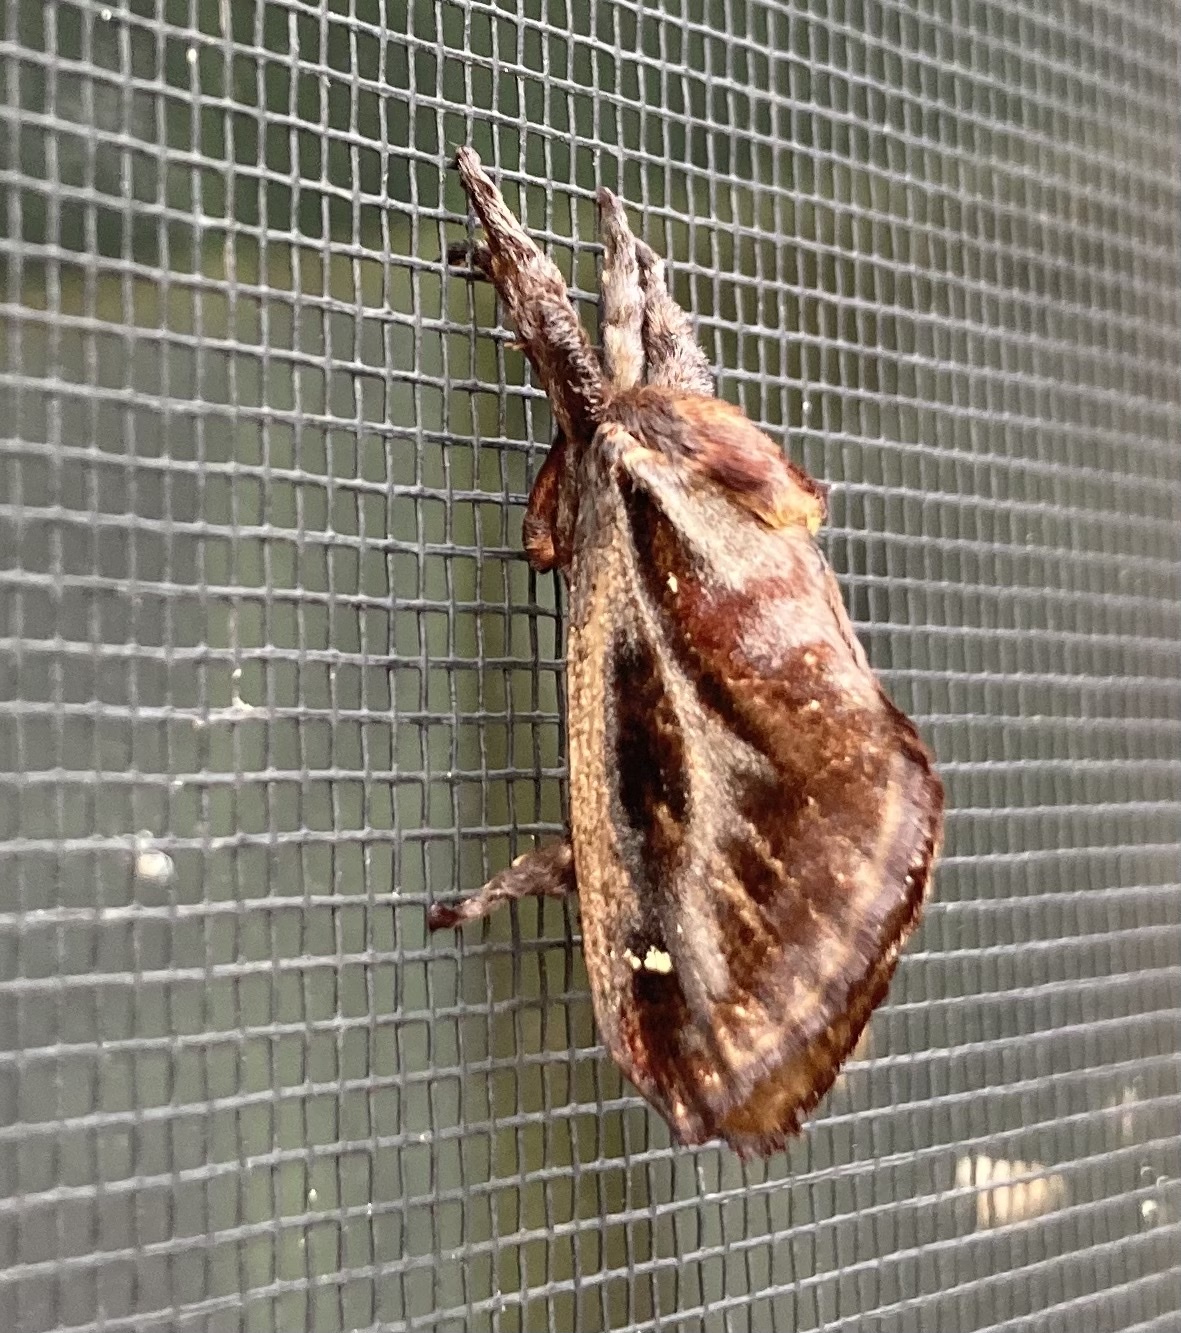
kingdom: Animalia
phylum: Arthropoda
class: Insecta
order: Lepidoptera
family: Limacodidae
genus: Acharia
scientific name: Acharia stimulea
